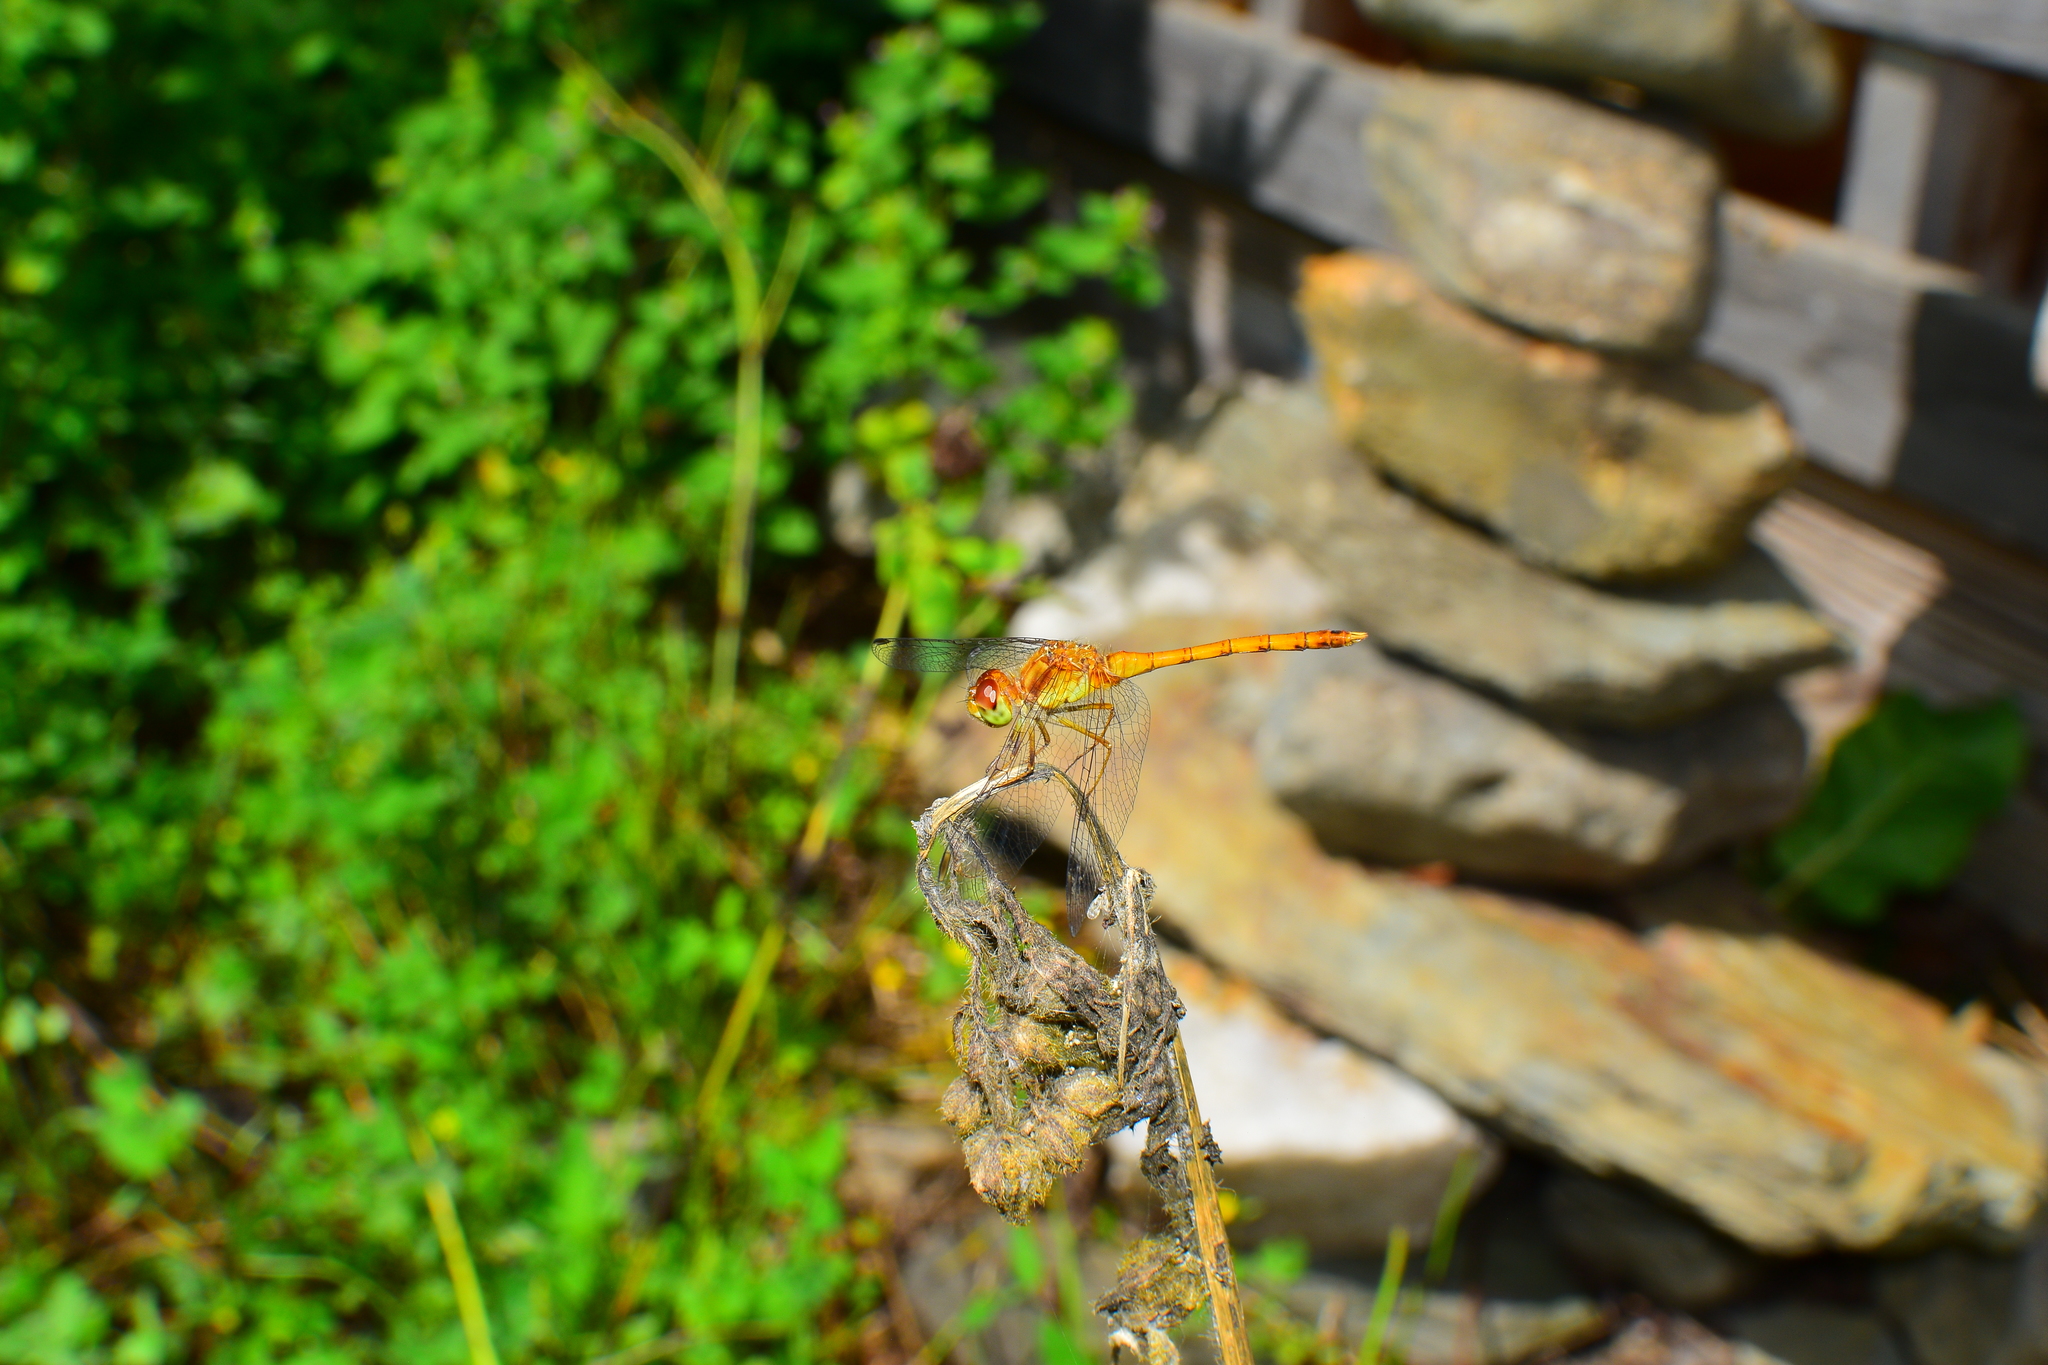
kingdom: Animalia
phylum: Arthropoda
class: Insecta
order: Odonata
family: Libellulidae
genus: Sympetrum
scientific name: Sympetrum vicinum
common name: Autumn meadowhawk
